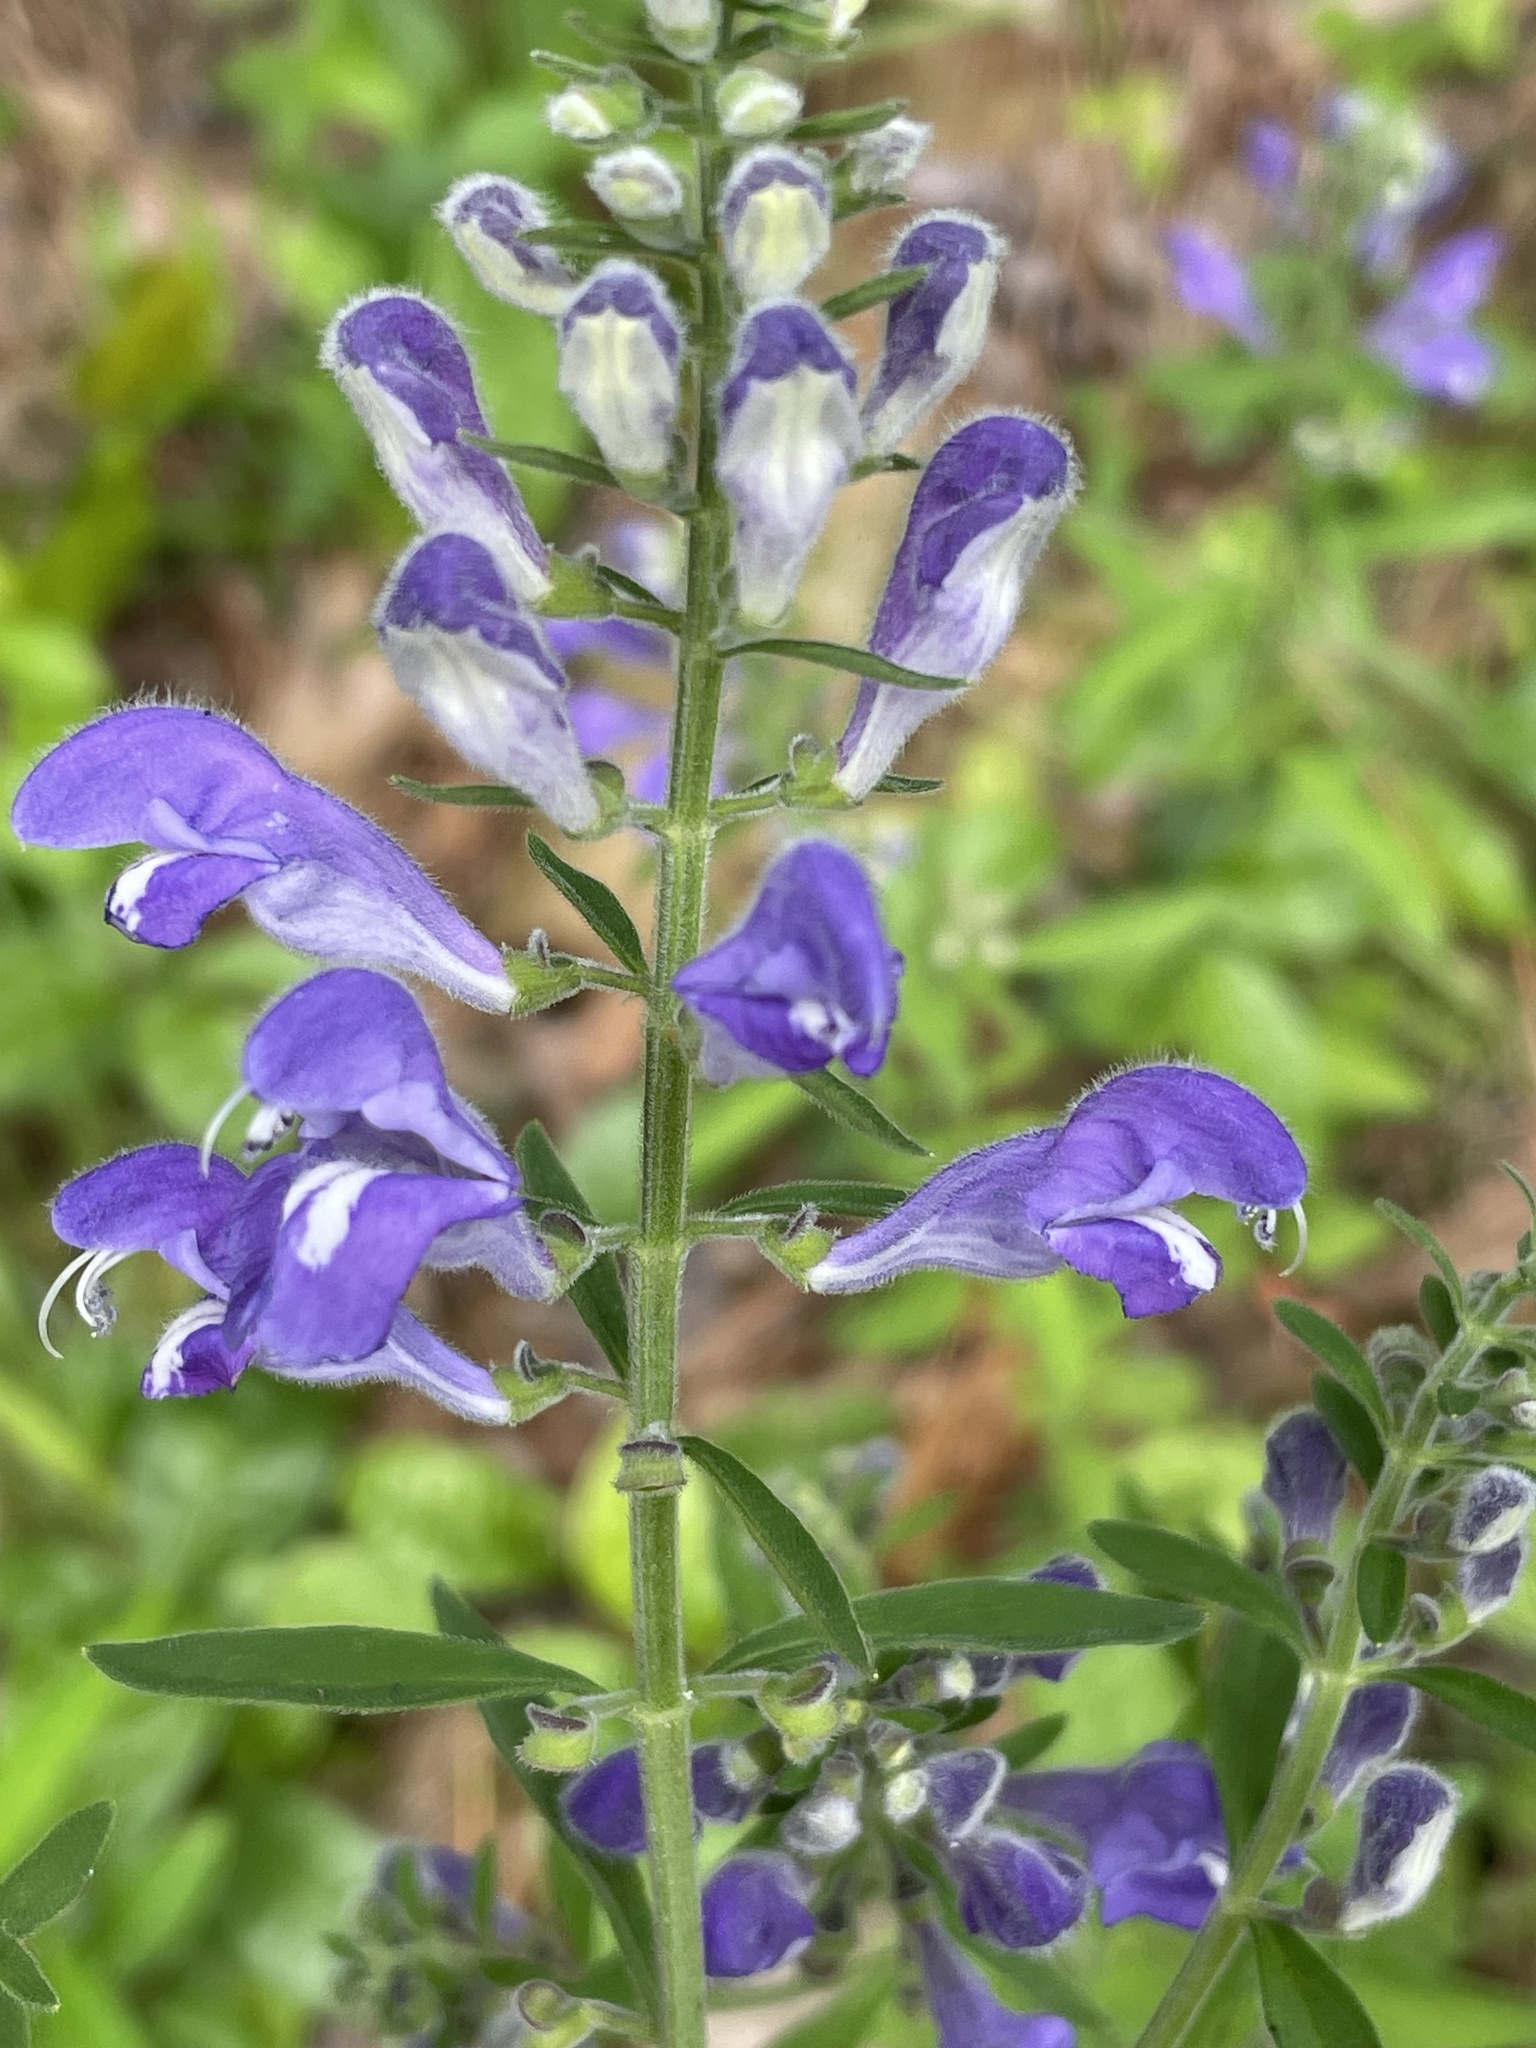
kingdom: Plantae
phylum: Tracheophyta
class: Magnoliopsida
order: Lamiales
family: Lamiaceae
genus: Scutellaria
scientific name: Scutellaria integrifolia
